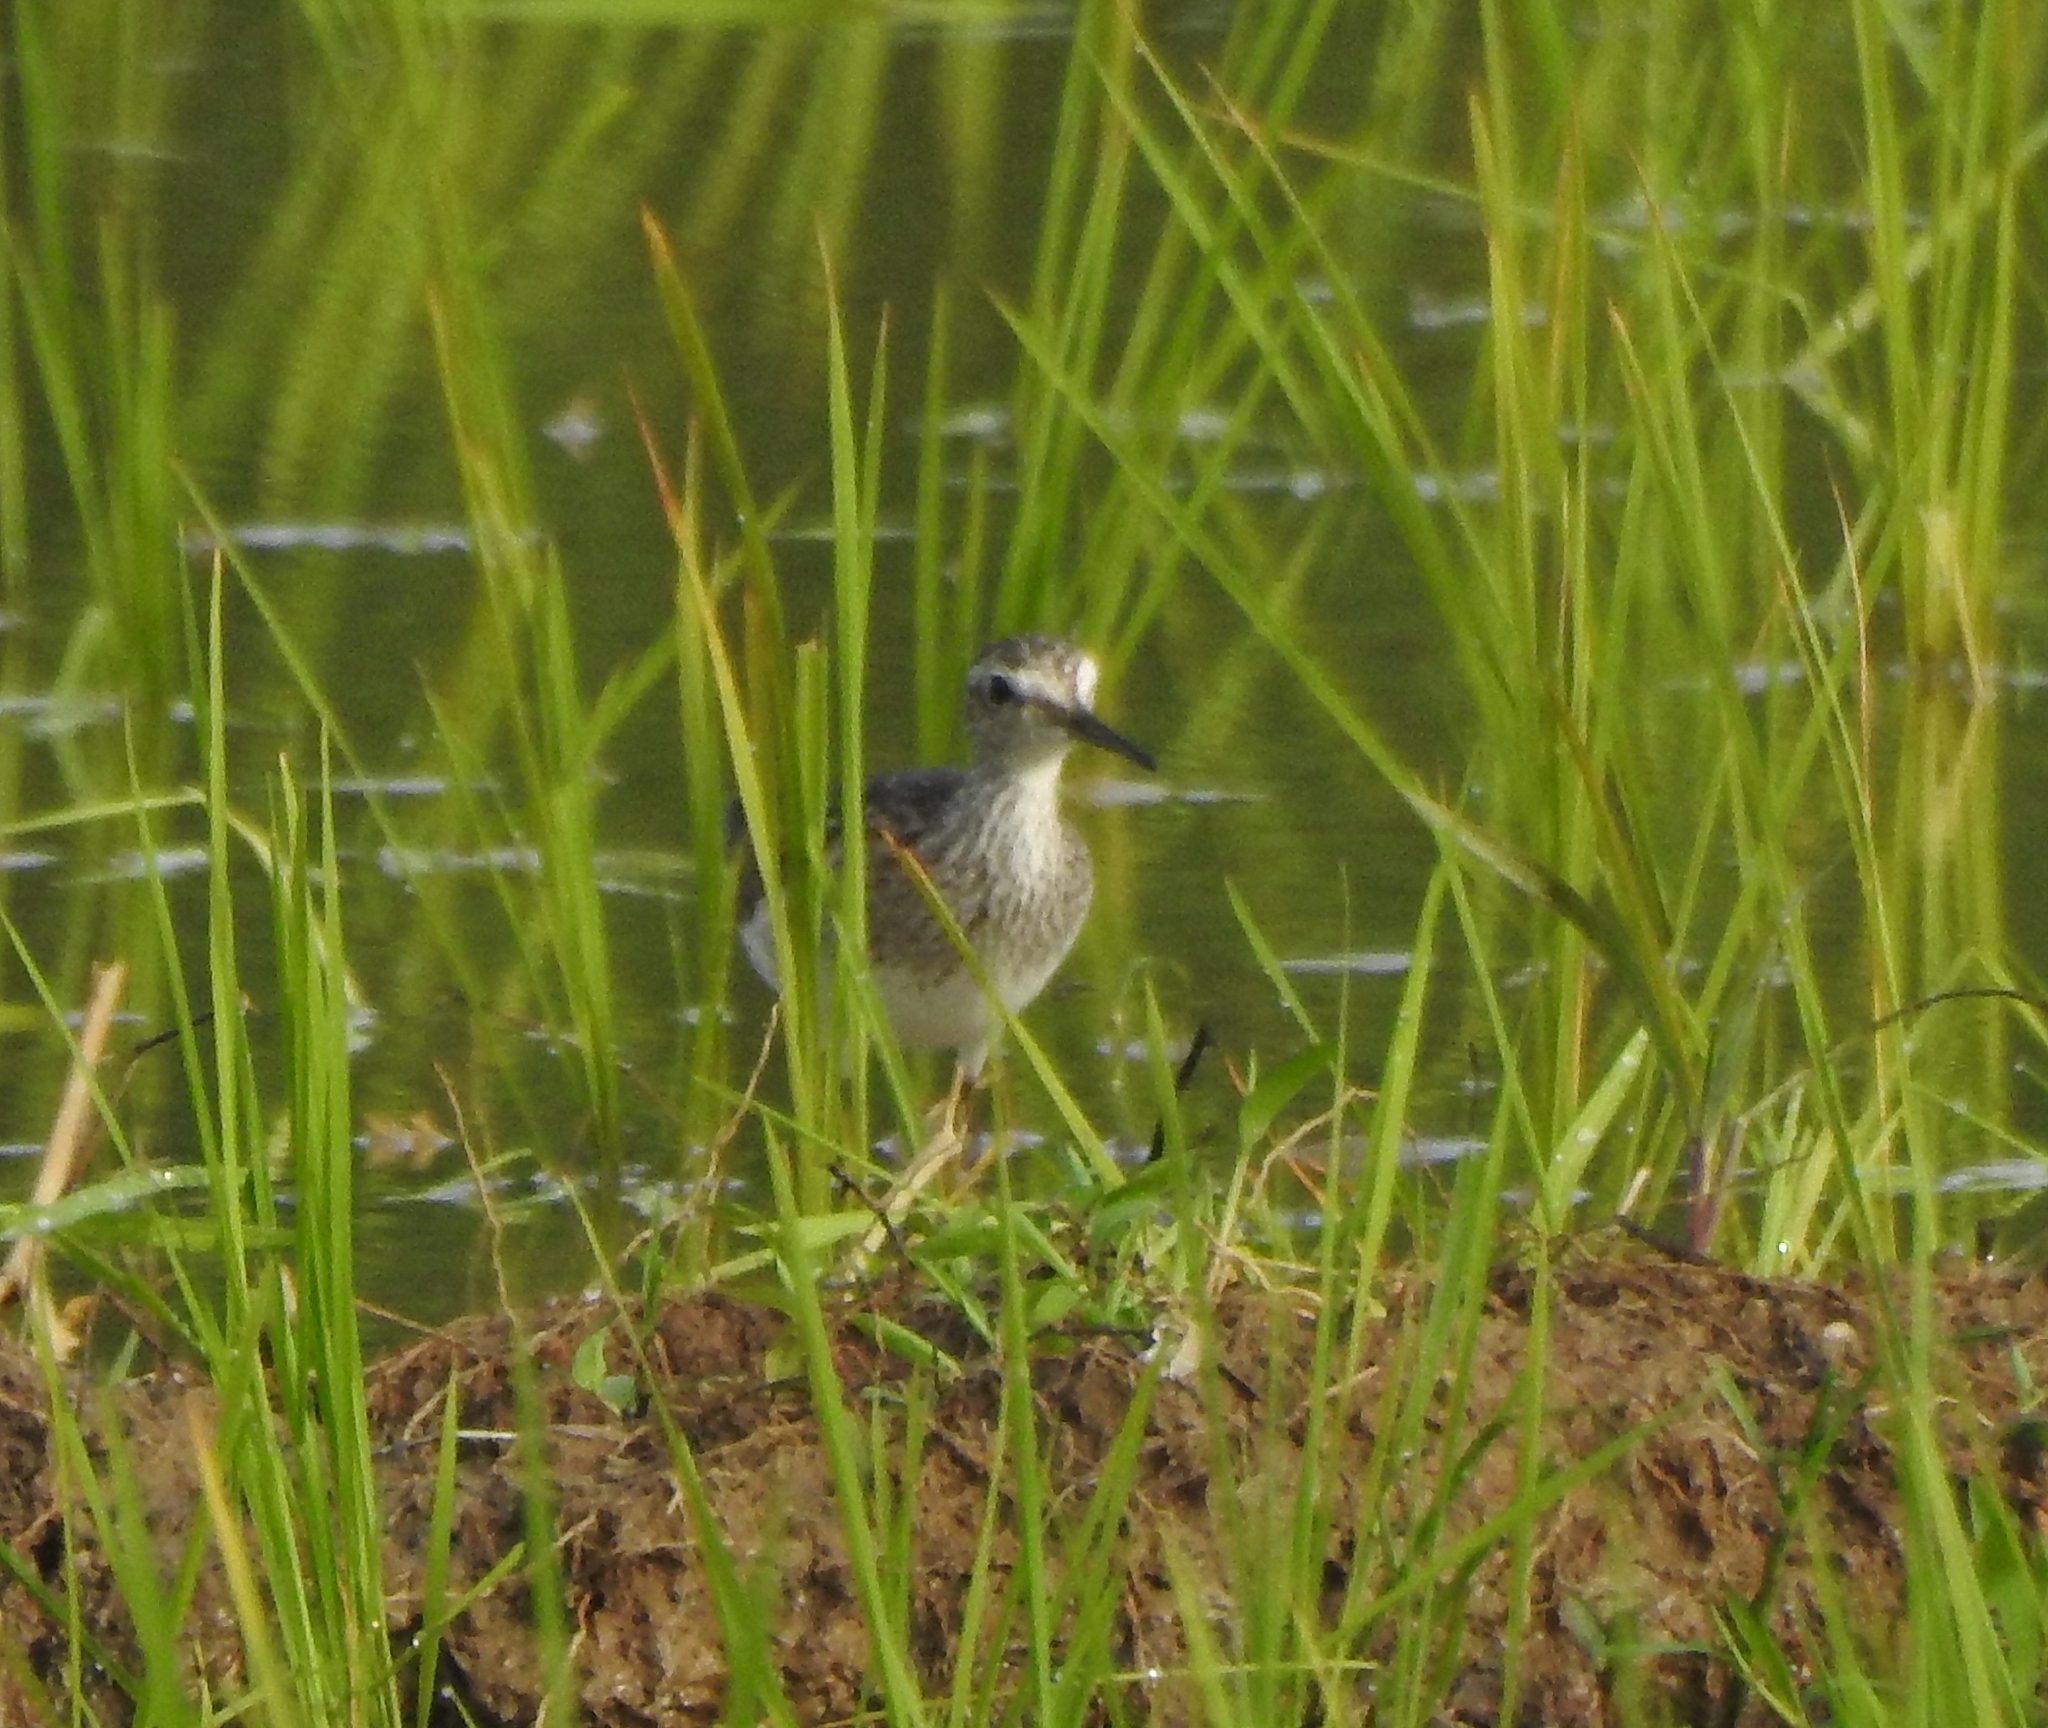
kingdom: Animalia
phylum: Chordata
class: Aves
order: Charadriiformes
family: Scolopacidae
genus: Tringa
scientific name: Tringa glareola
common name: Wood sandpiper
